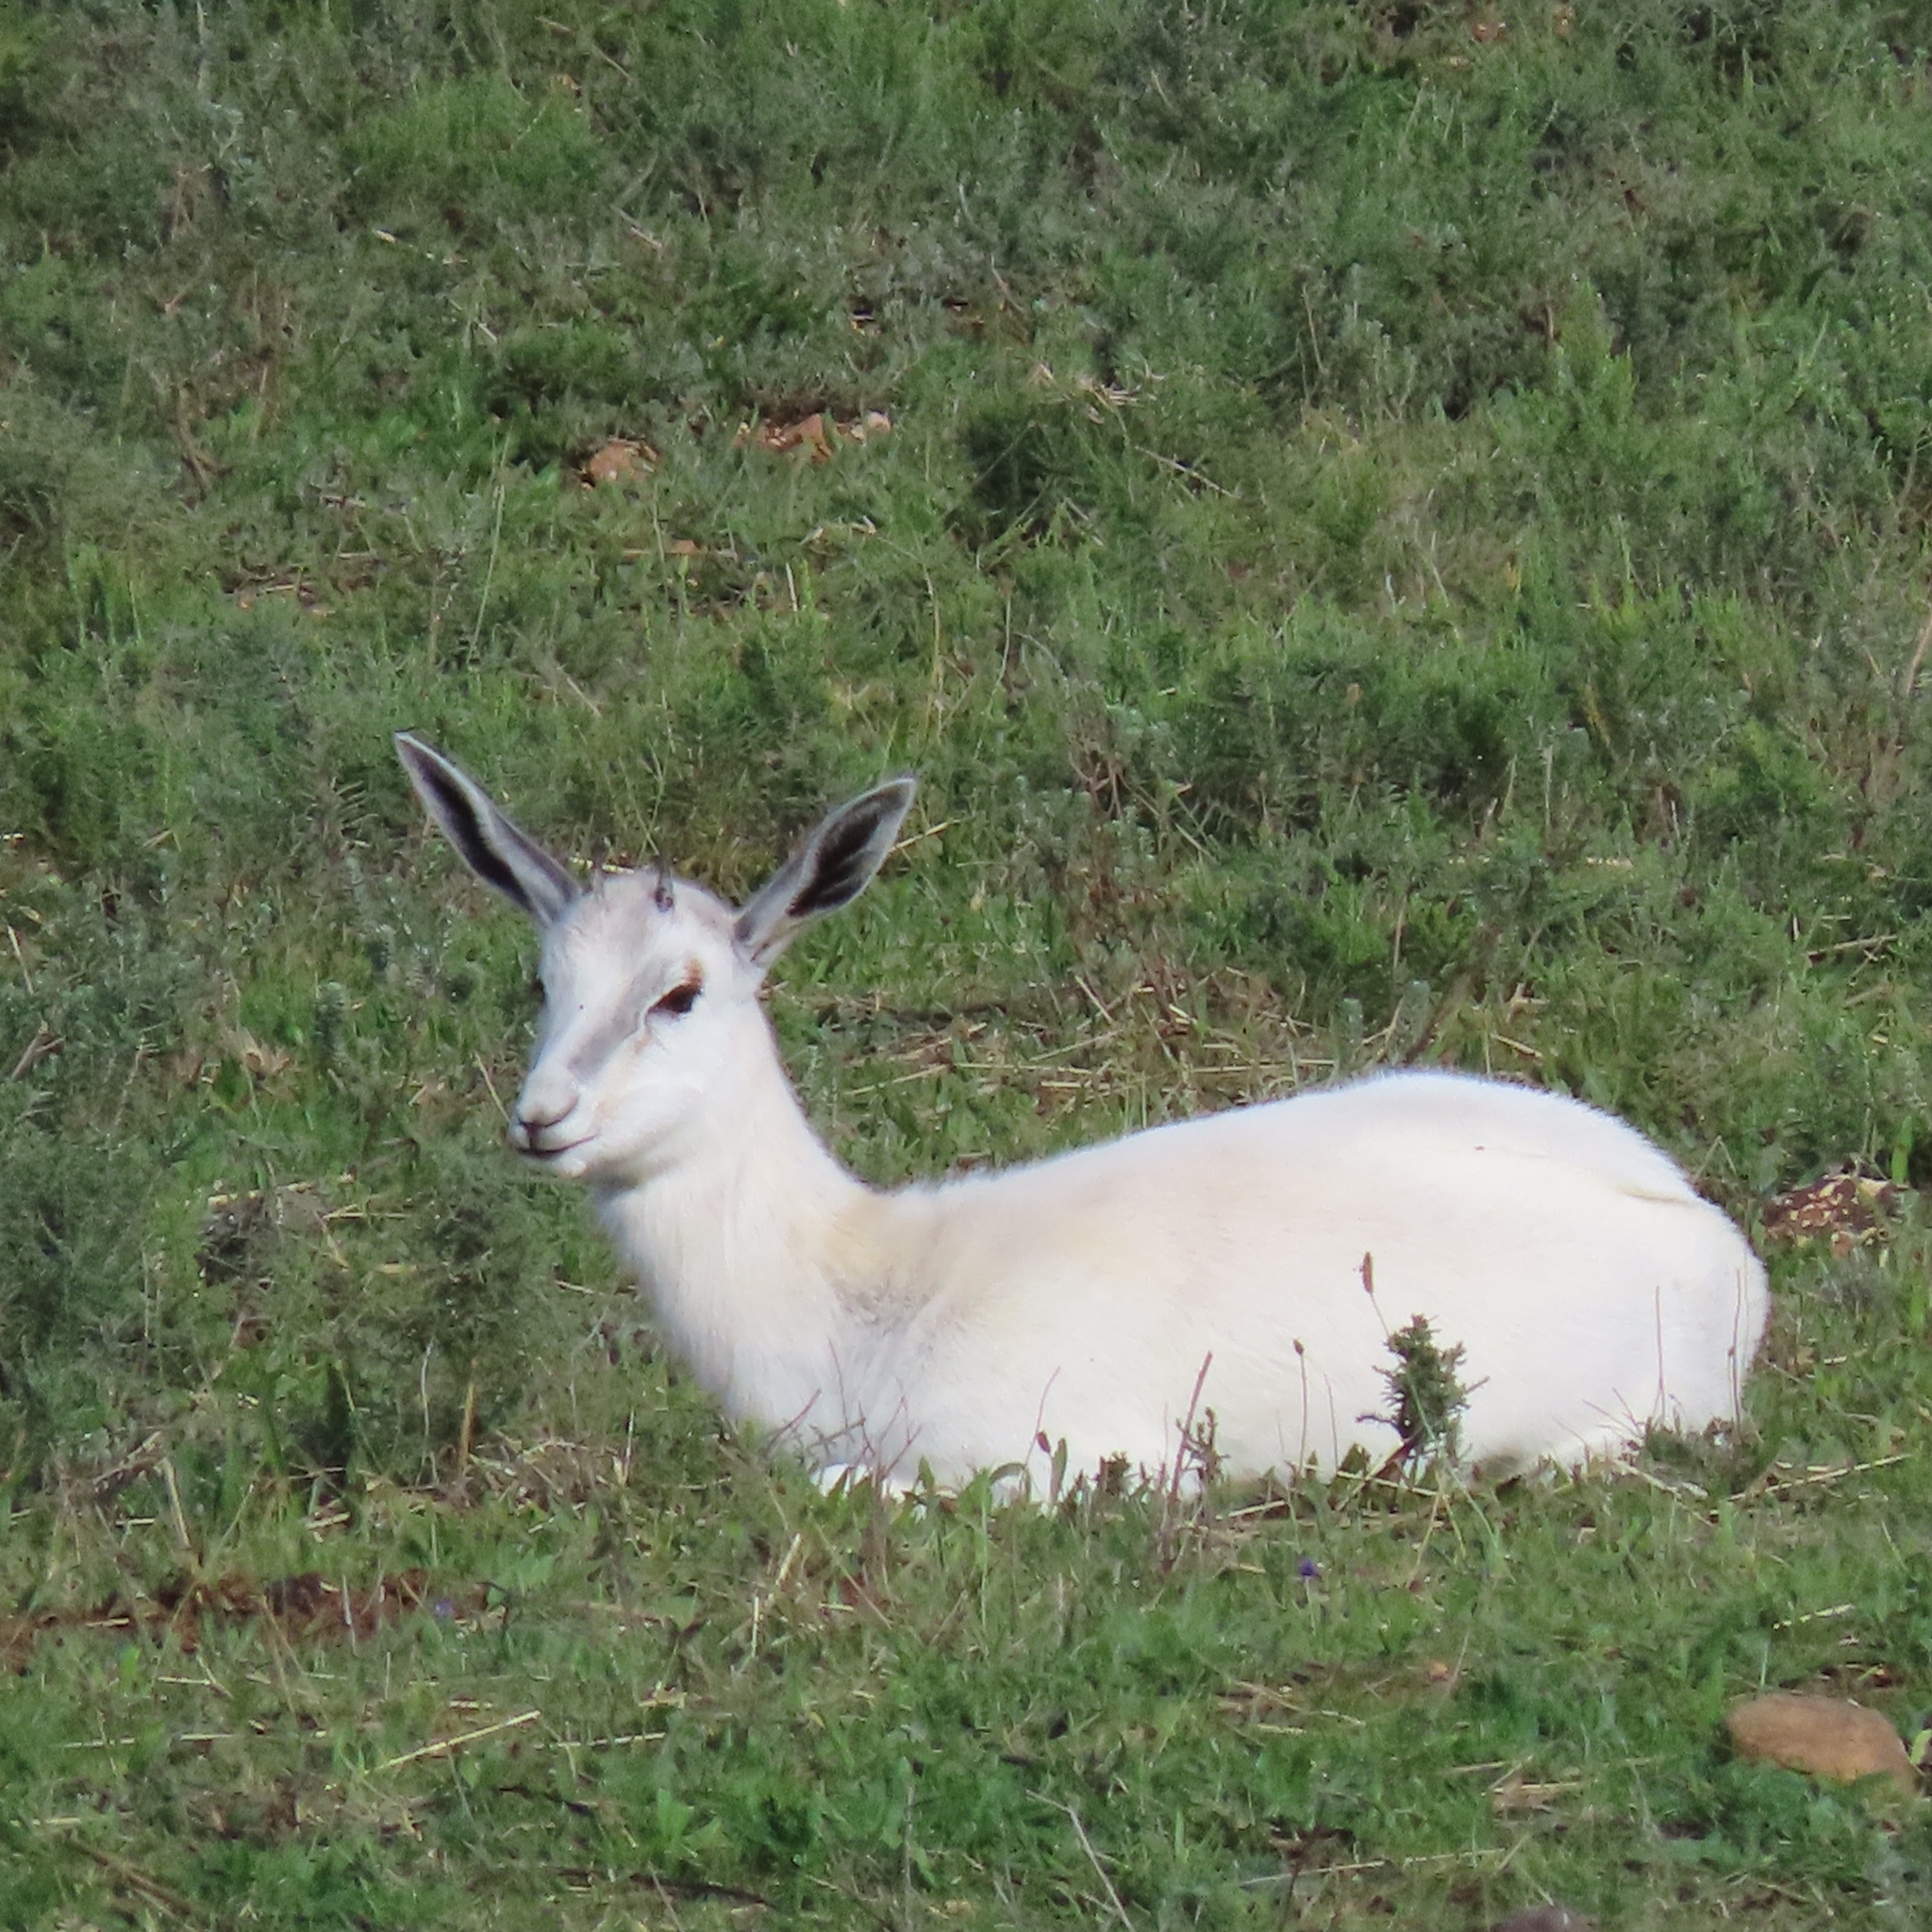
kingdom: Animalia
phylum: Chordata
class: Mammalia
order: Artiodactyla
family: Bovidae
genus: Antidorcas
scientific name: Antidorcas marsupialis
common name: Springbok
